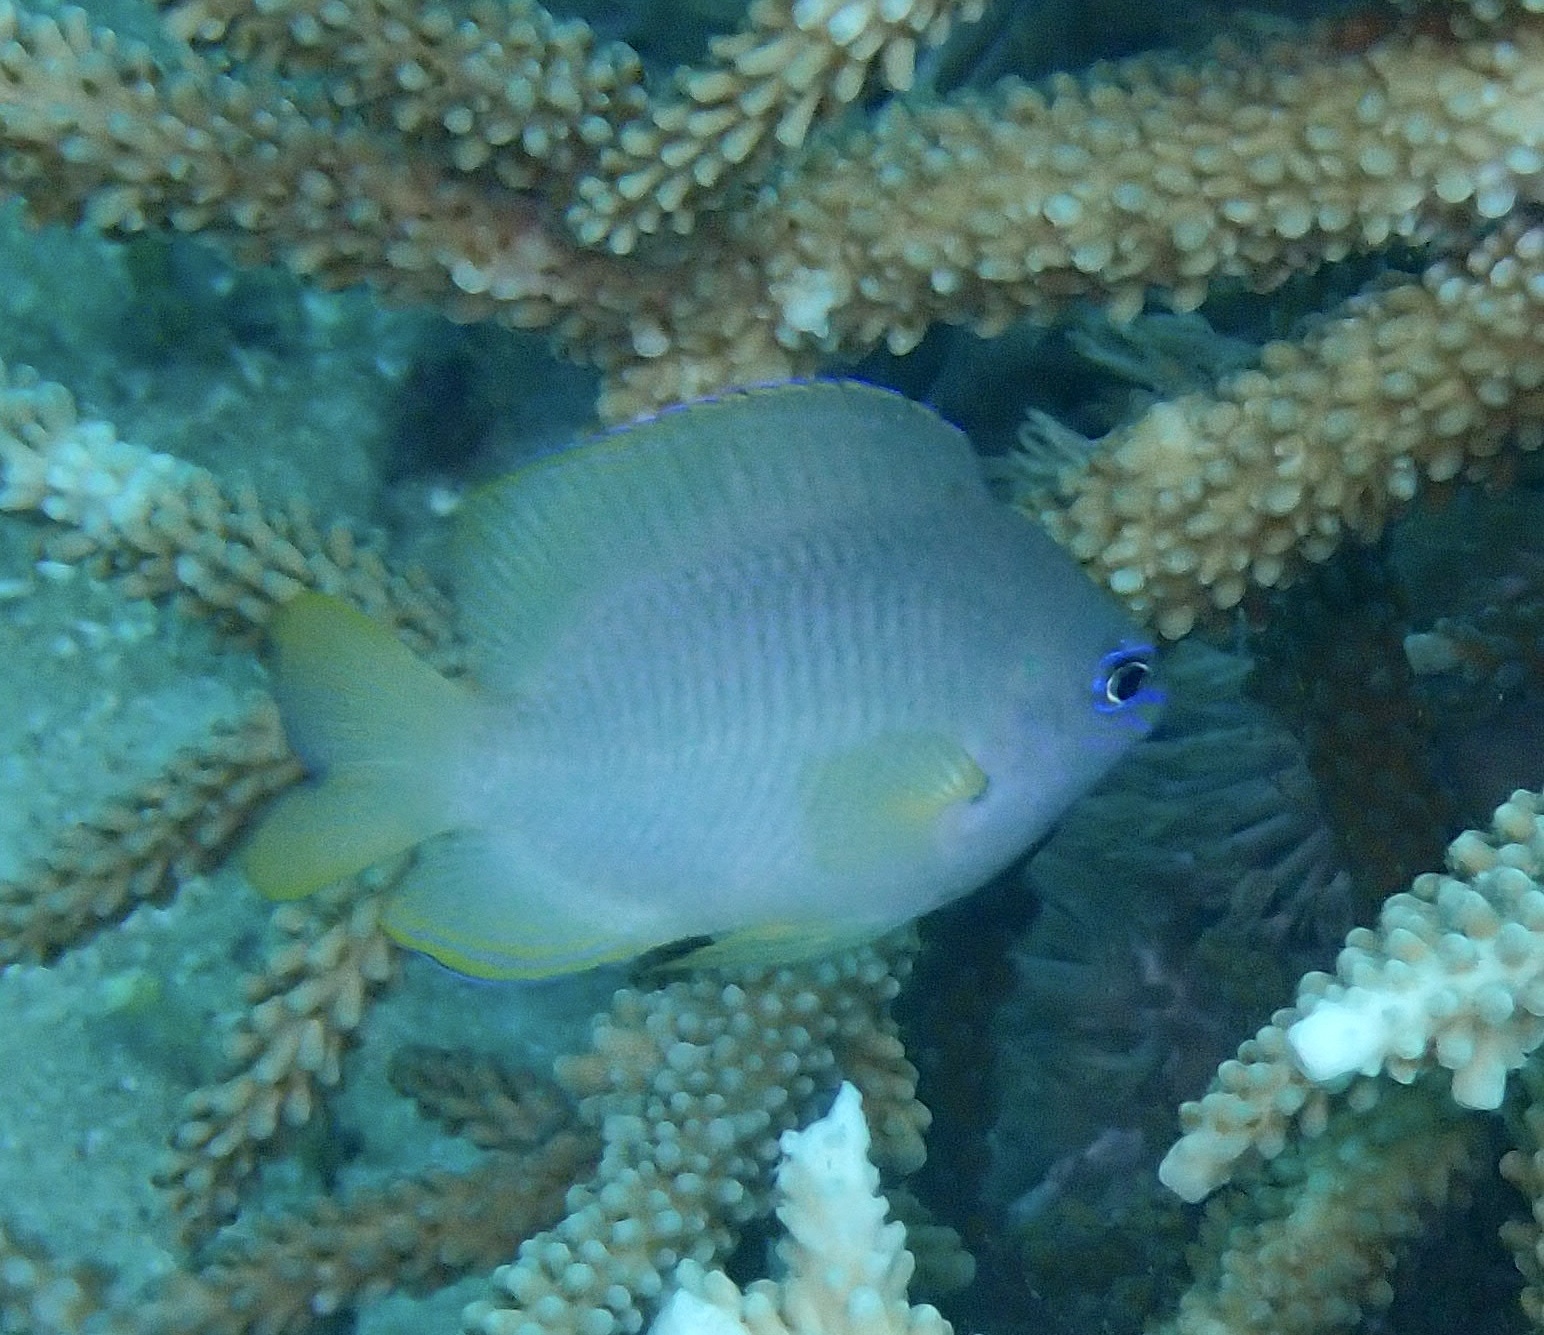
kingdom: Animalia
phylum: Chordata
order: Perciformes
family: Pomacentridae
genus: Pomacentrus
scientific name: Pomacentrus amboinensis
